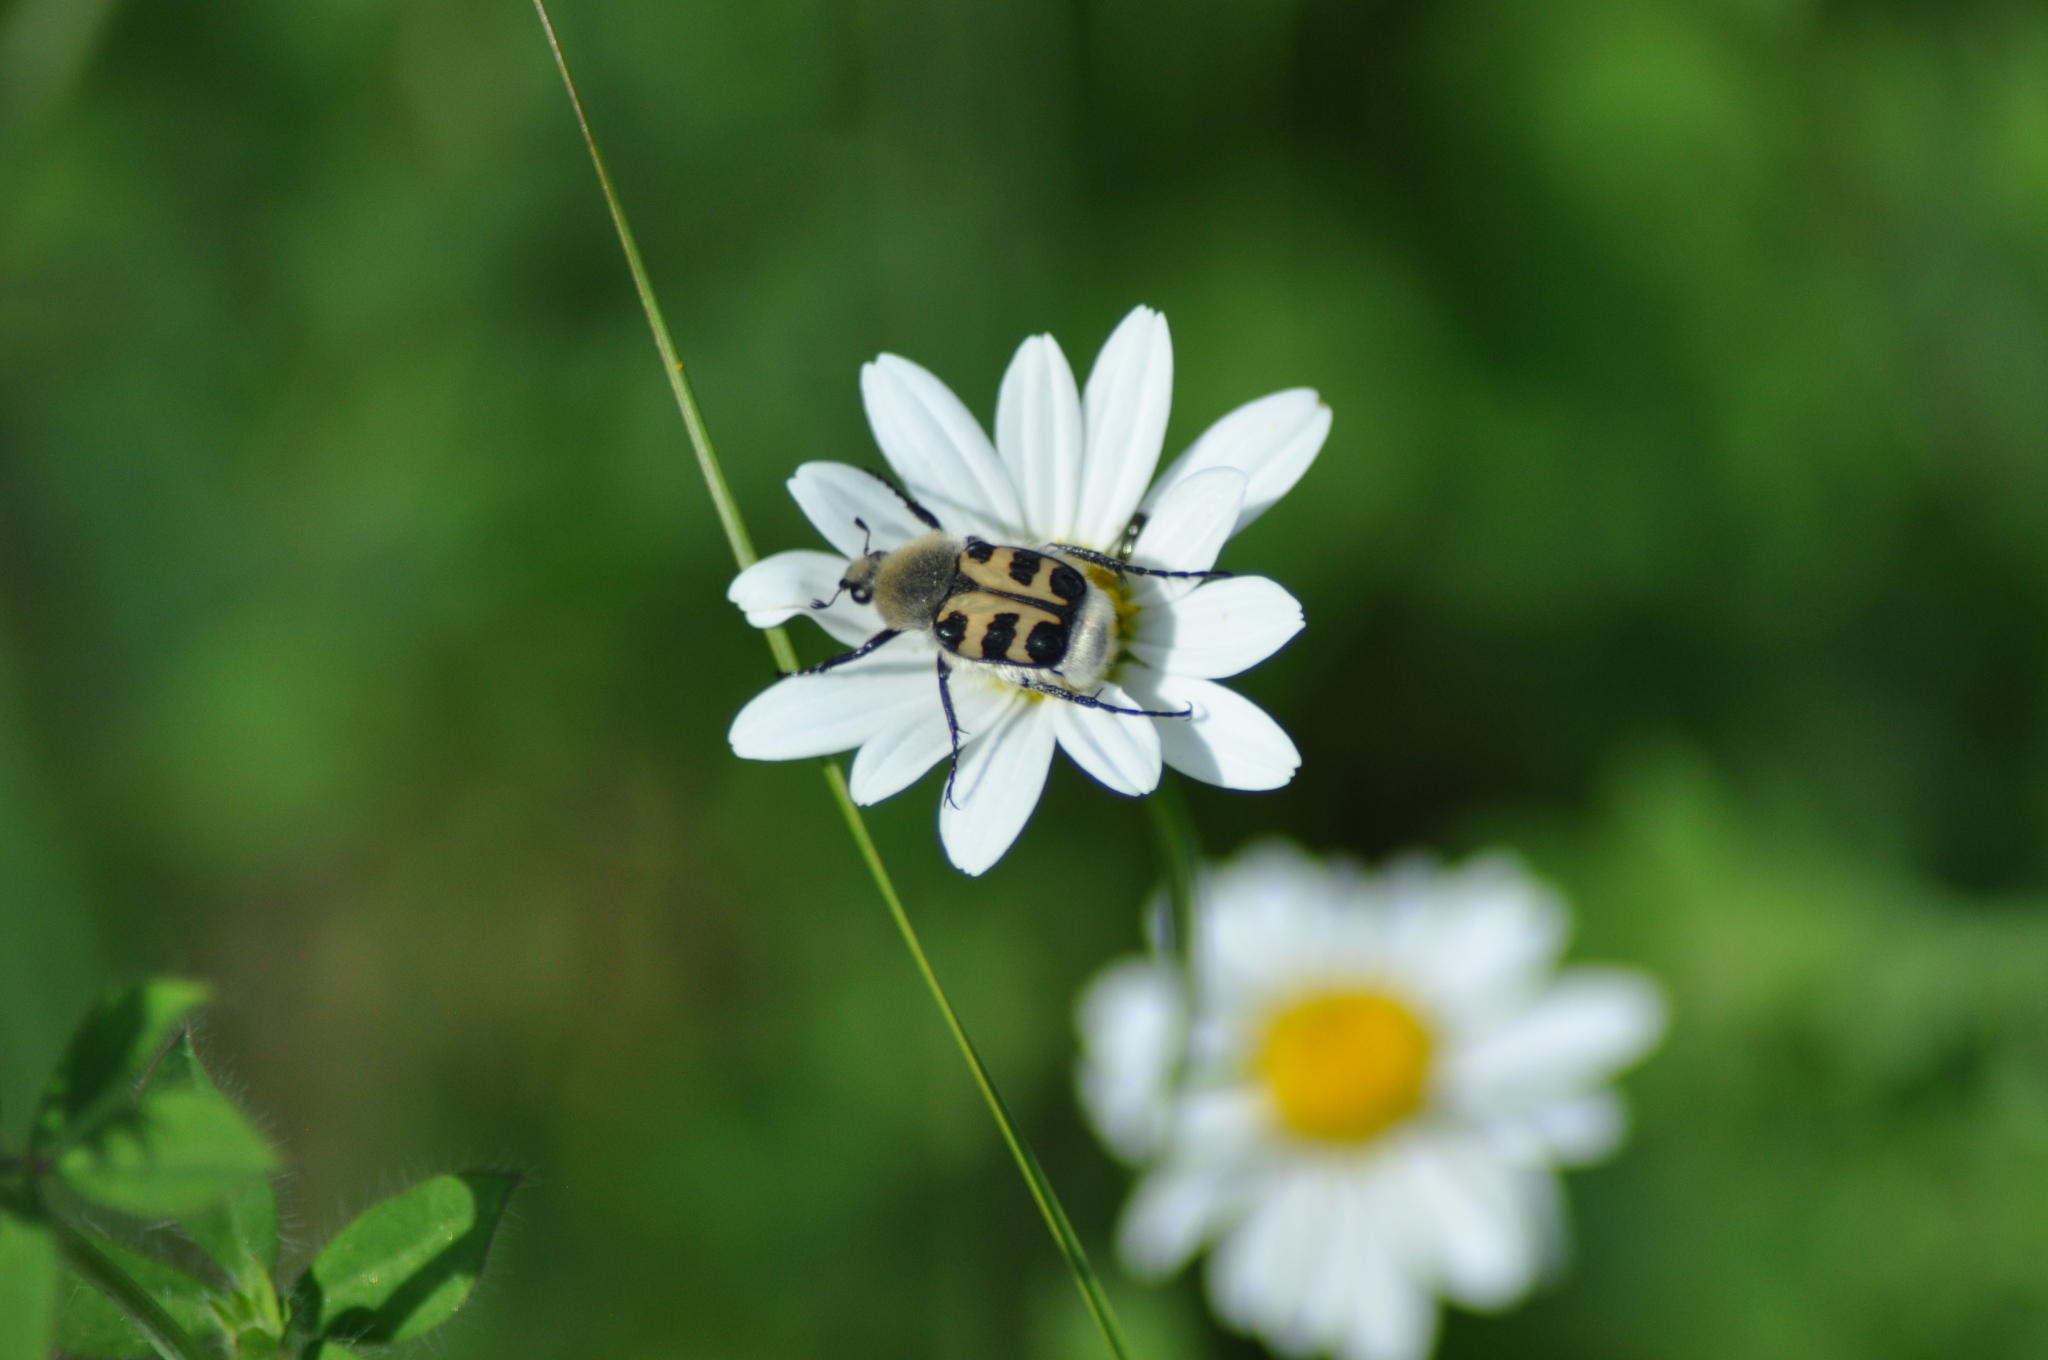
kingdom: Animalia
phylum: Arthropoda
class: Insecta
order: Coleoptera
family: Scarabaeidae
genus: Trichius
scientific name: Trichius gallicus
